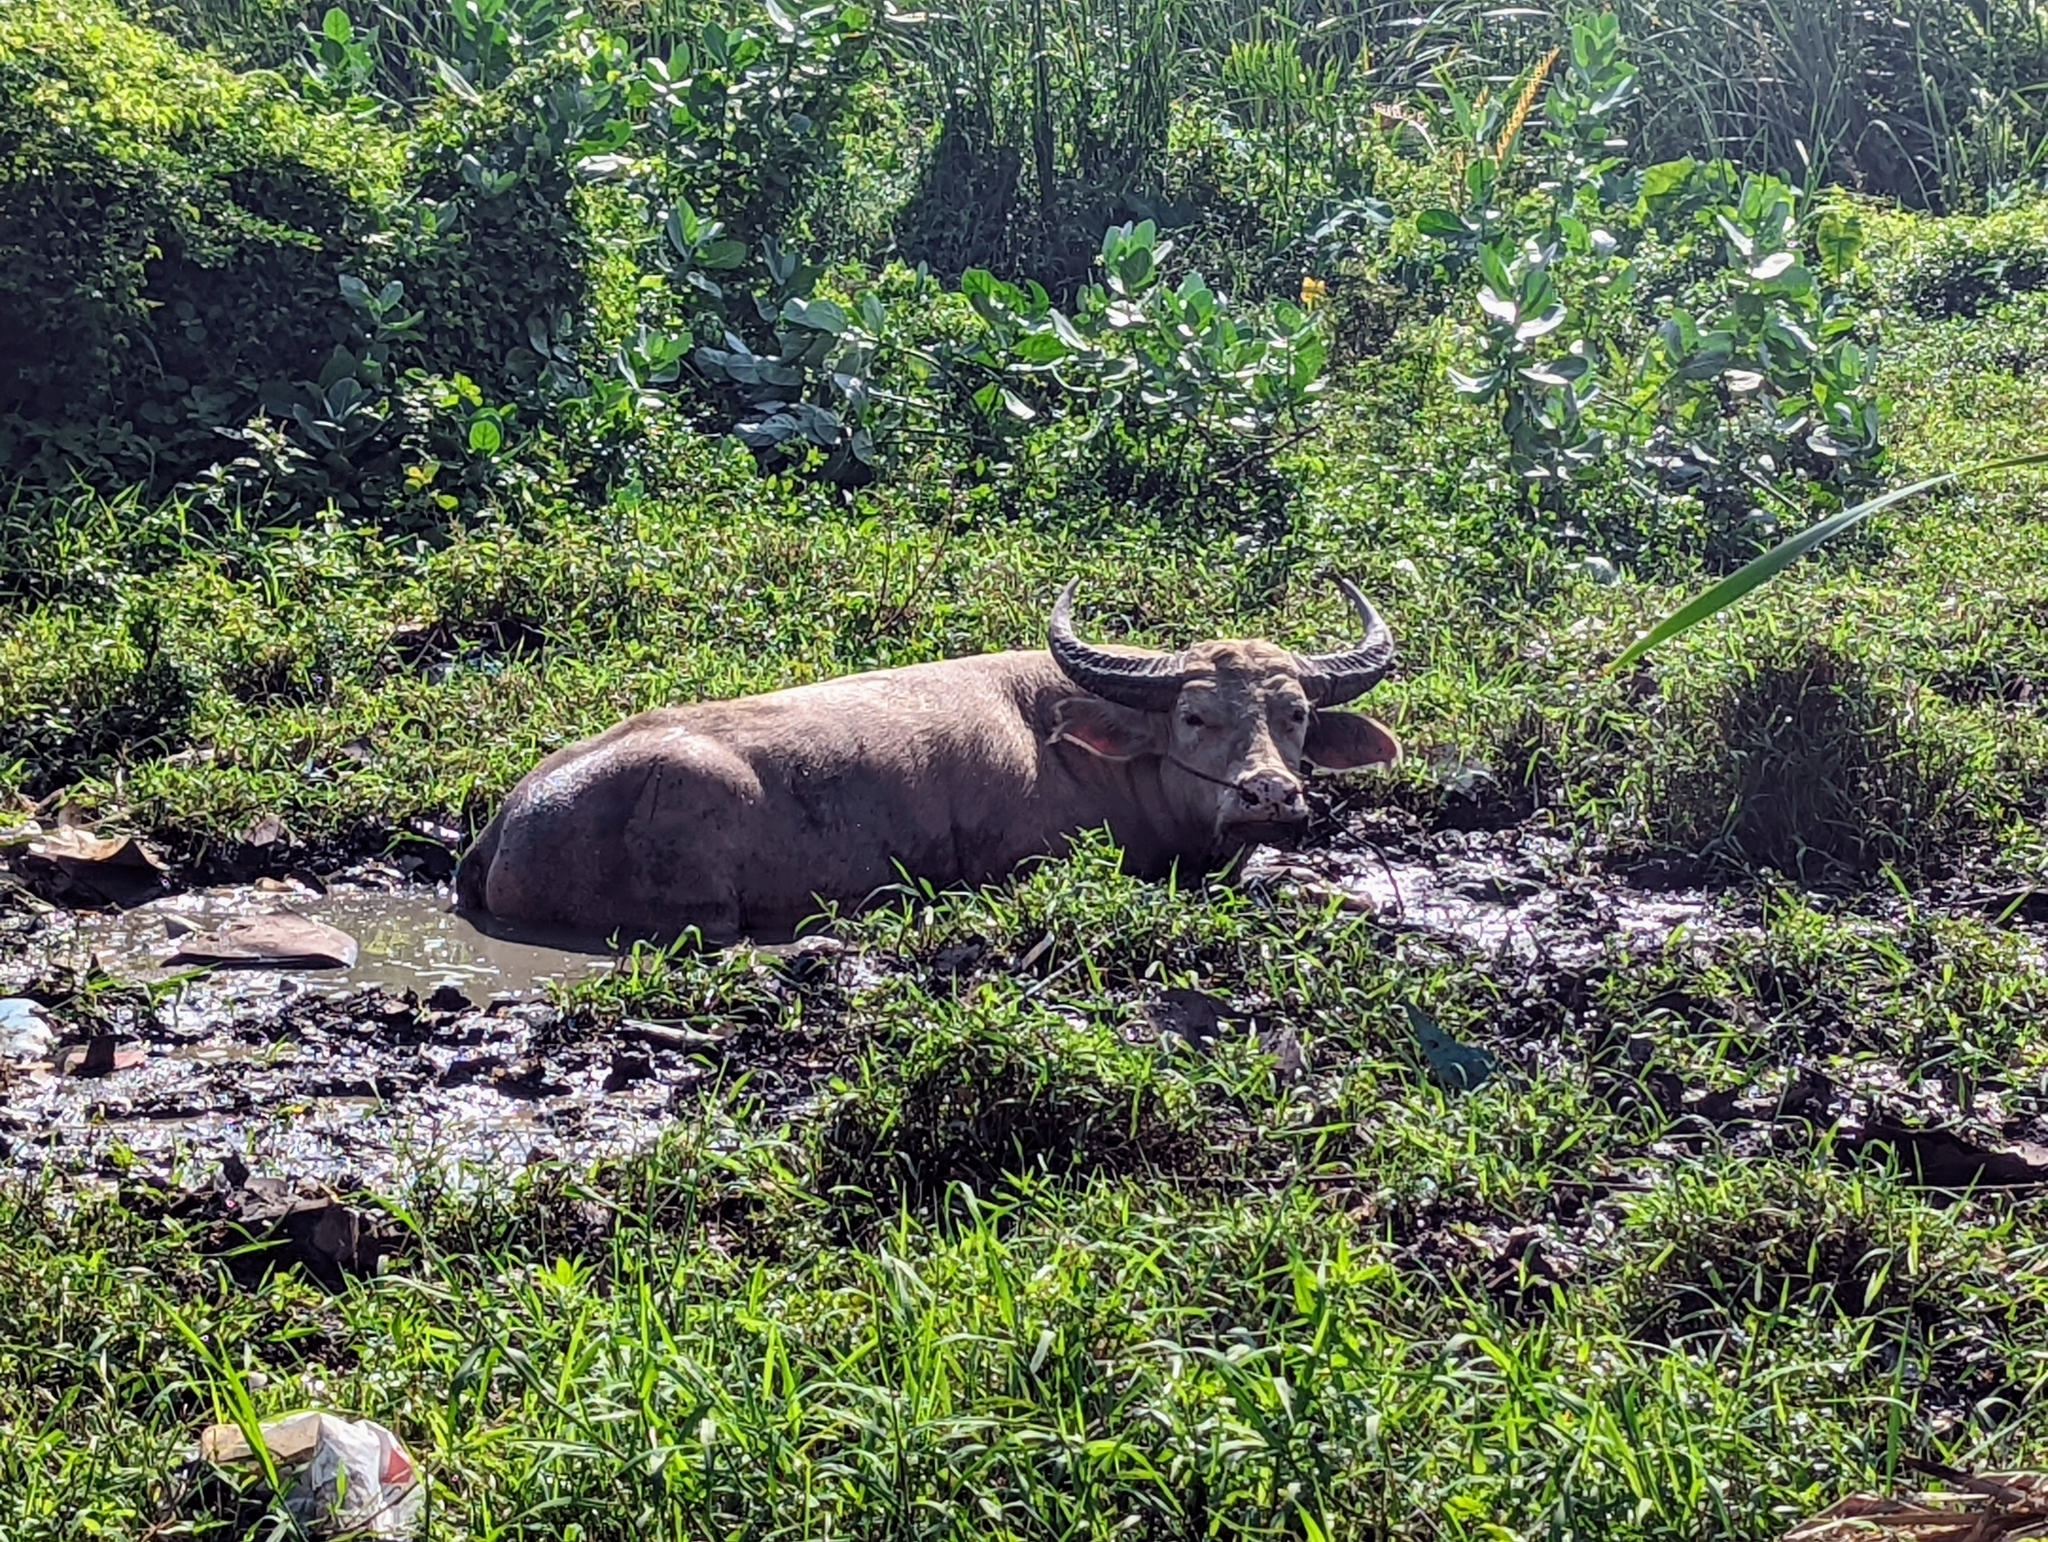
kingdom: Animalia
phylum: Chordata
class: Mammalia
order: Artiodactyla
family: Bovidae
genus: Bubalus
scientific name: Bubalus bubalis
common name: Water buffalo
